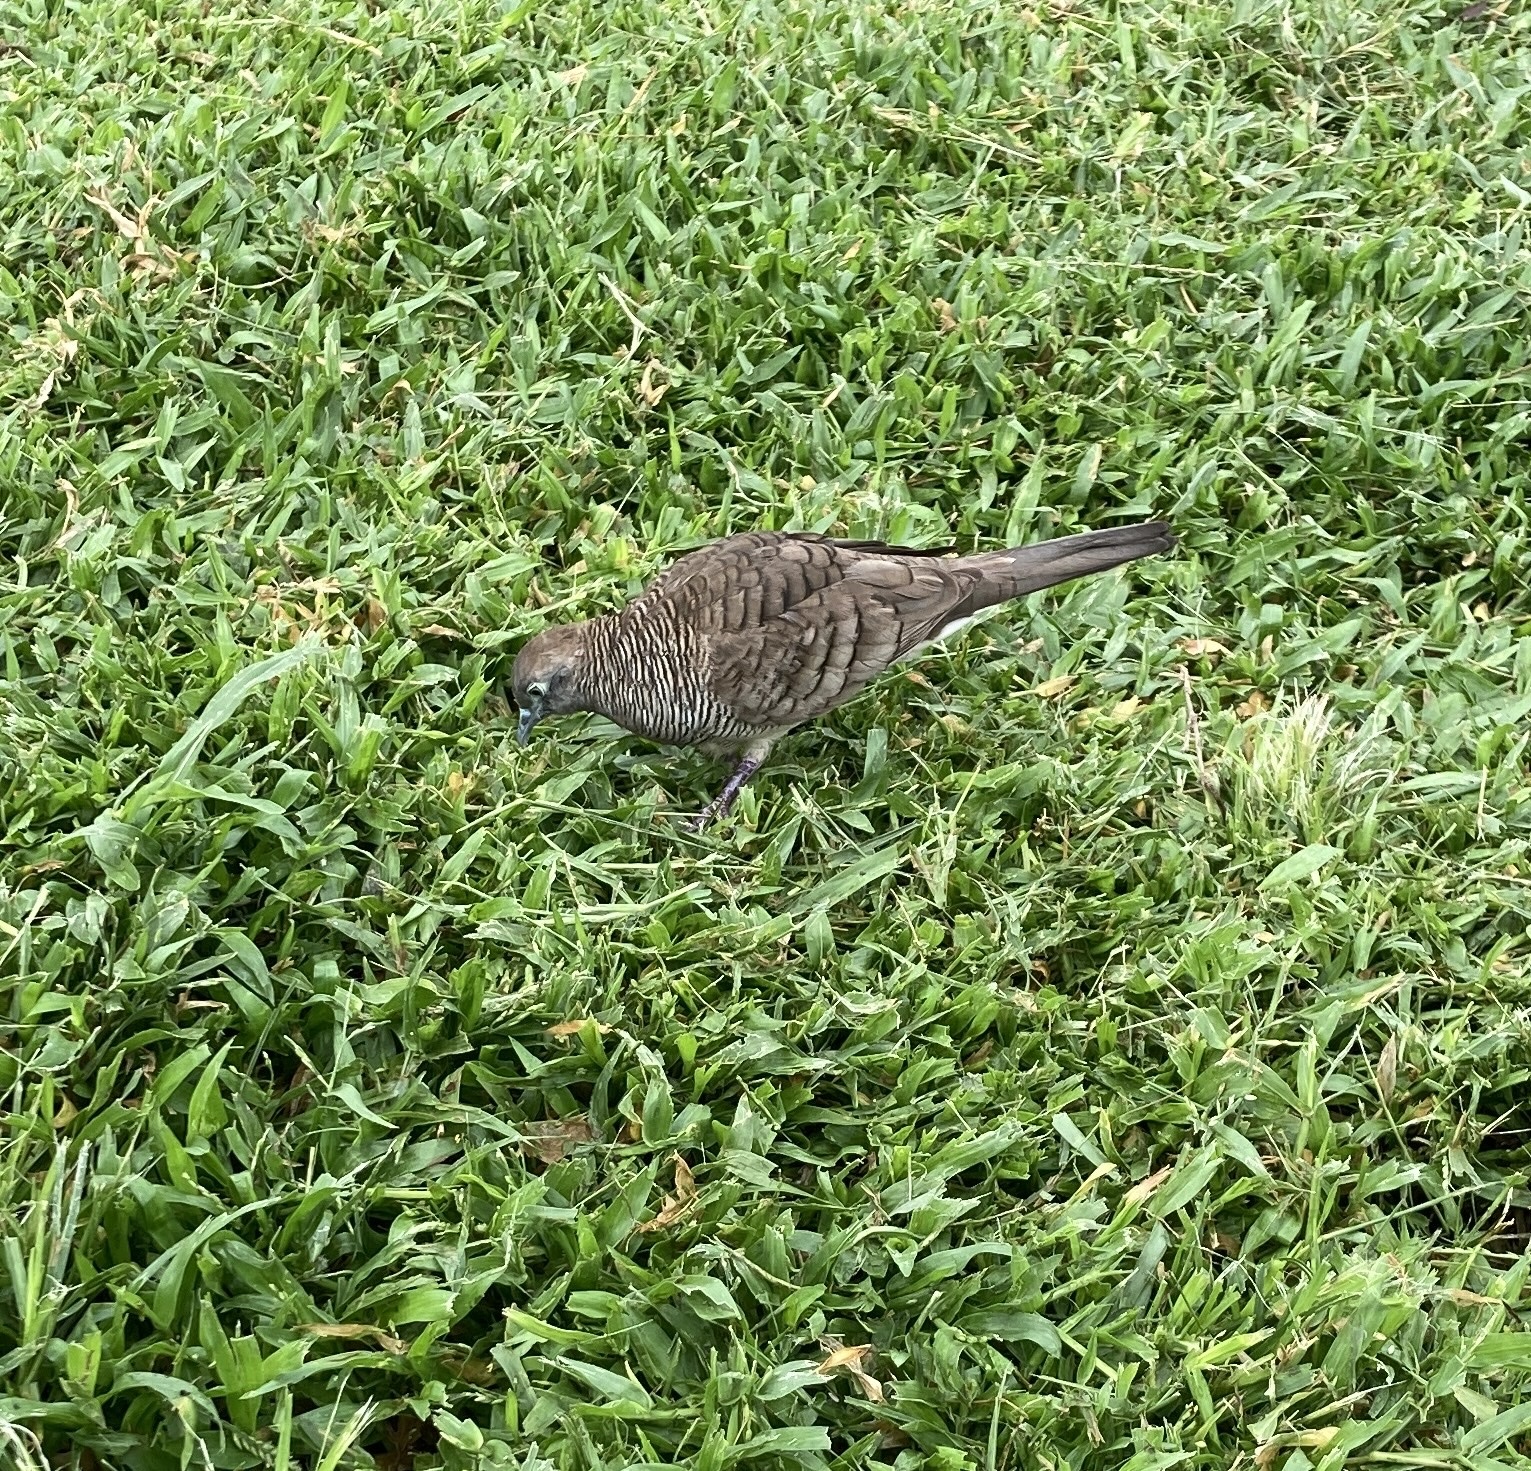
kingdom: Animalia
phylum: Chordata
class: Aves
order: Columbiformes
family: Columbidae
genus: Geopelia
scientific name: Geopelia striata
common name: Zebra dove
